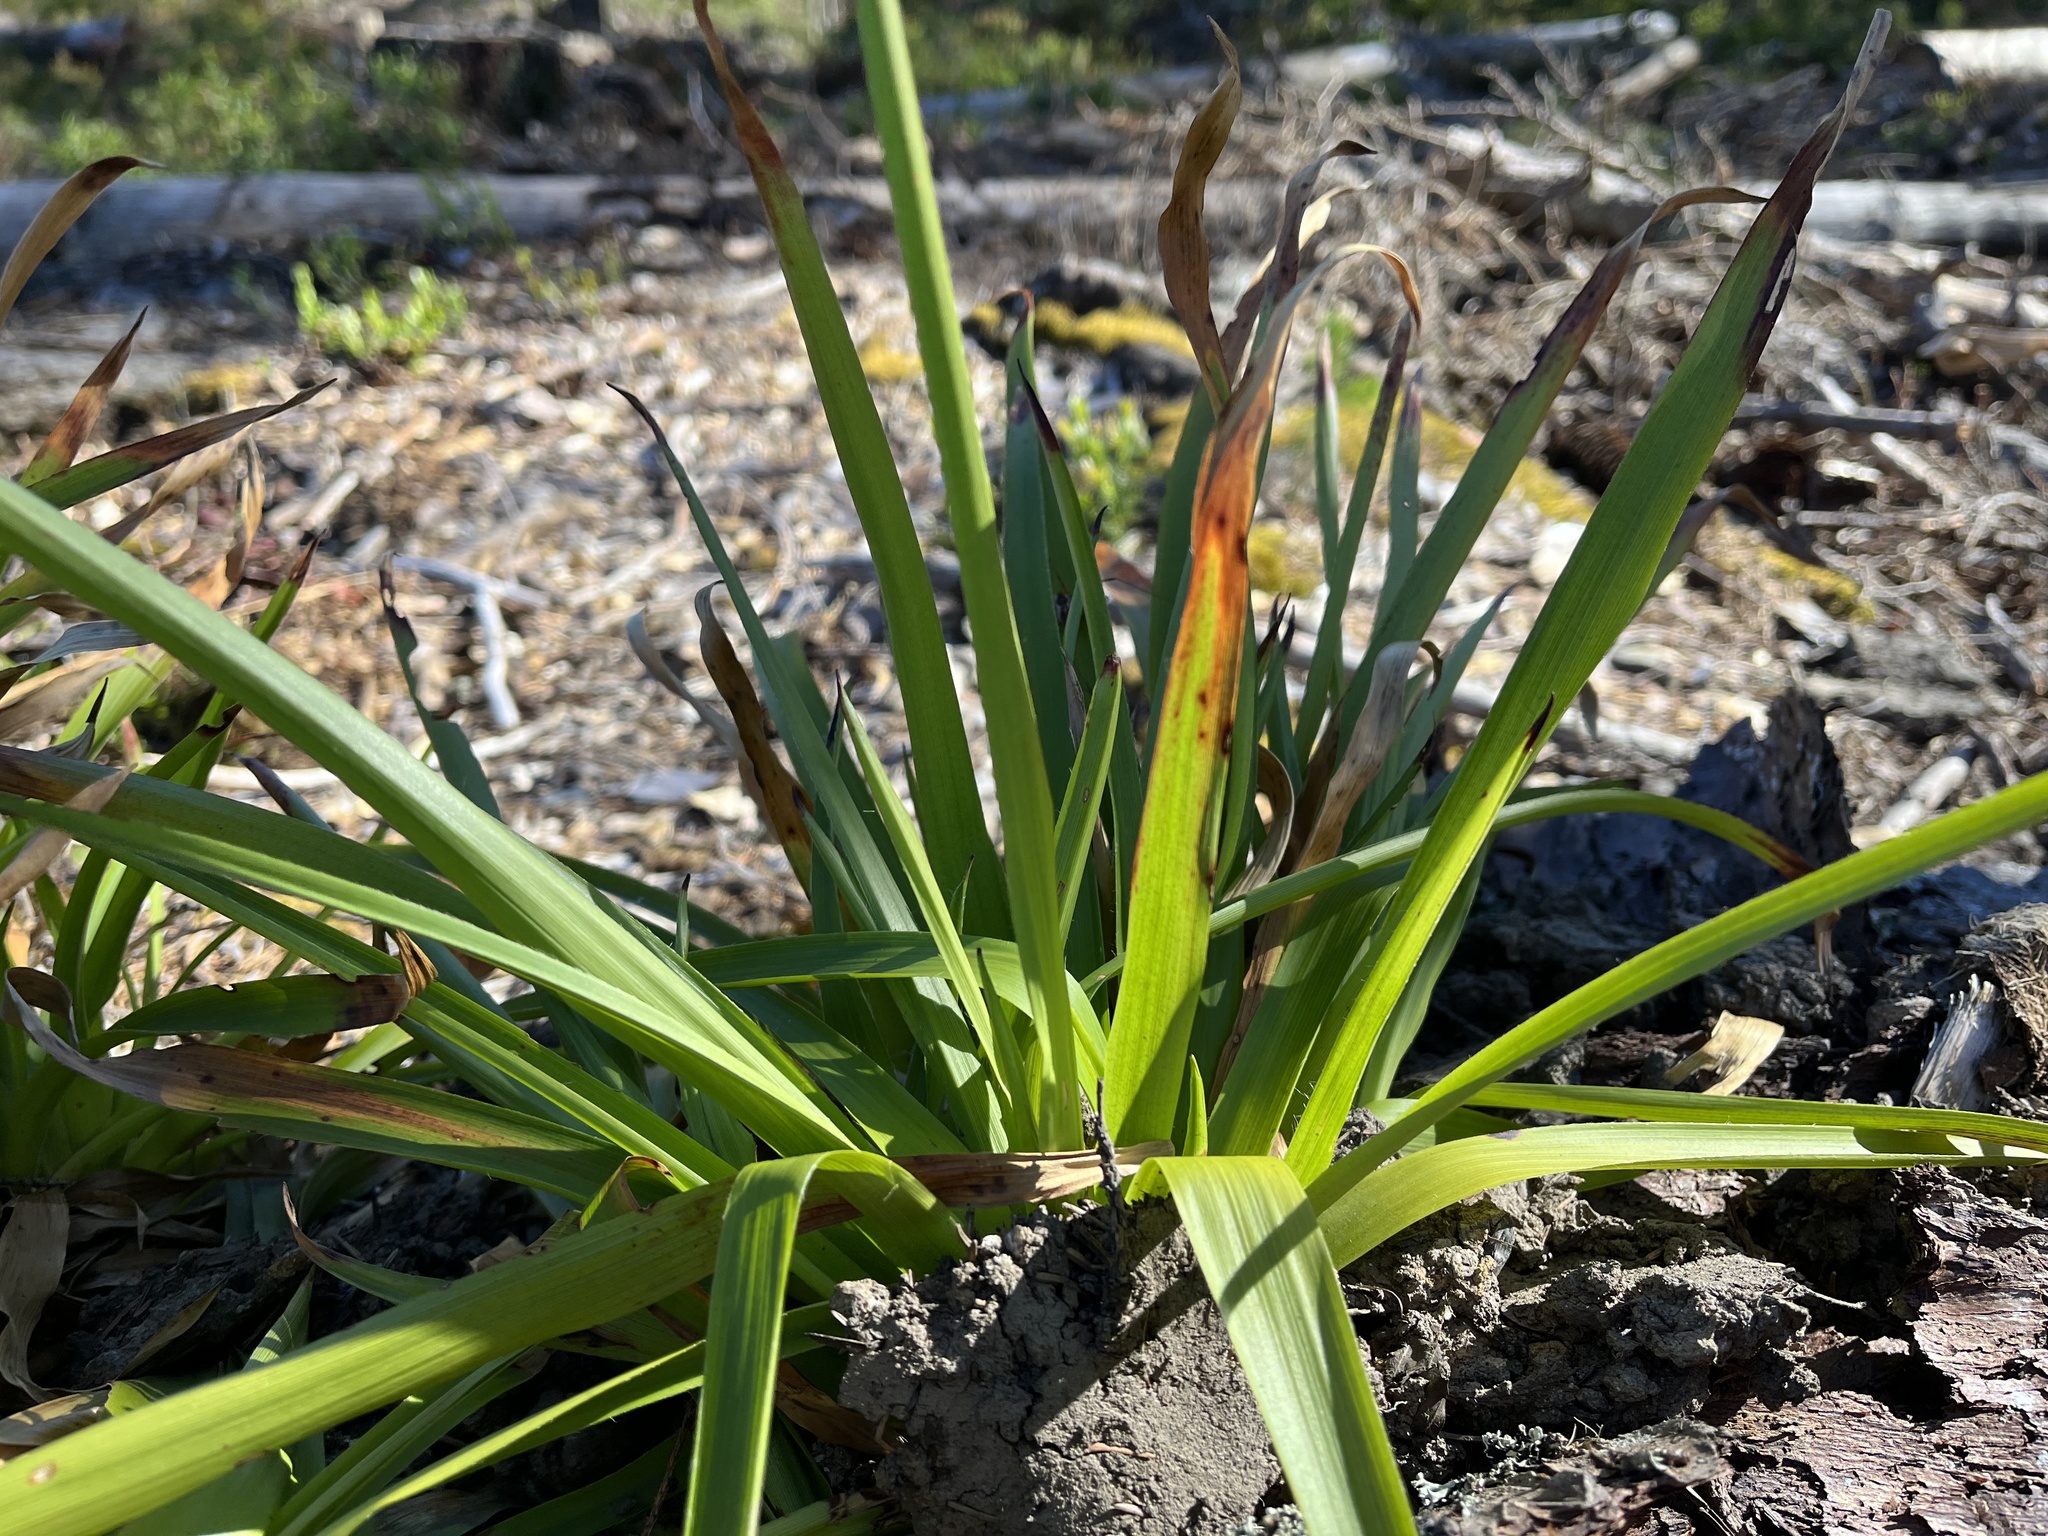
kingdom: Plantae
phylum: Tracheophyta
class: Liliopsida
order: Poales
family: Juncaceae
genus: Luzula
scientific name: Luzula sylvatica
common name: Great wood-rush
